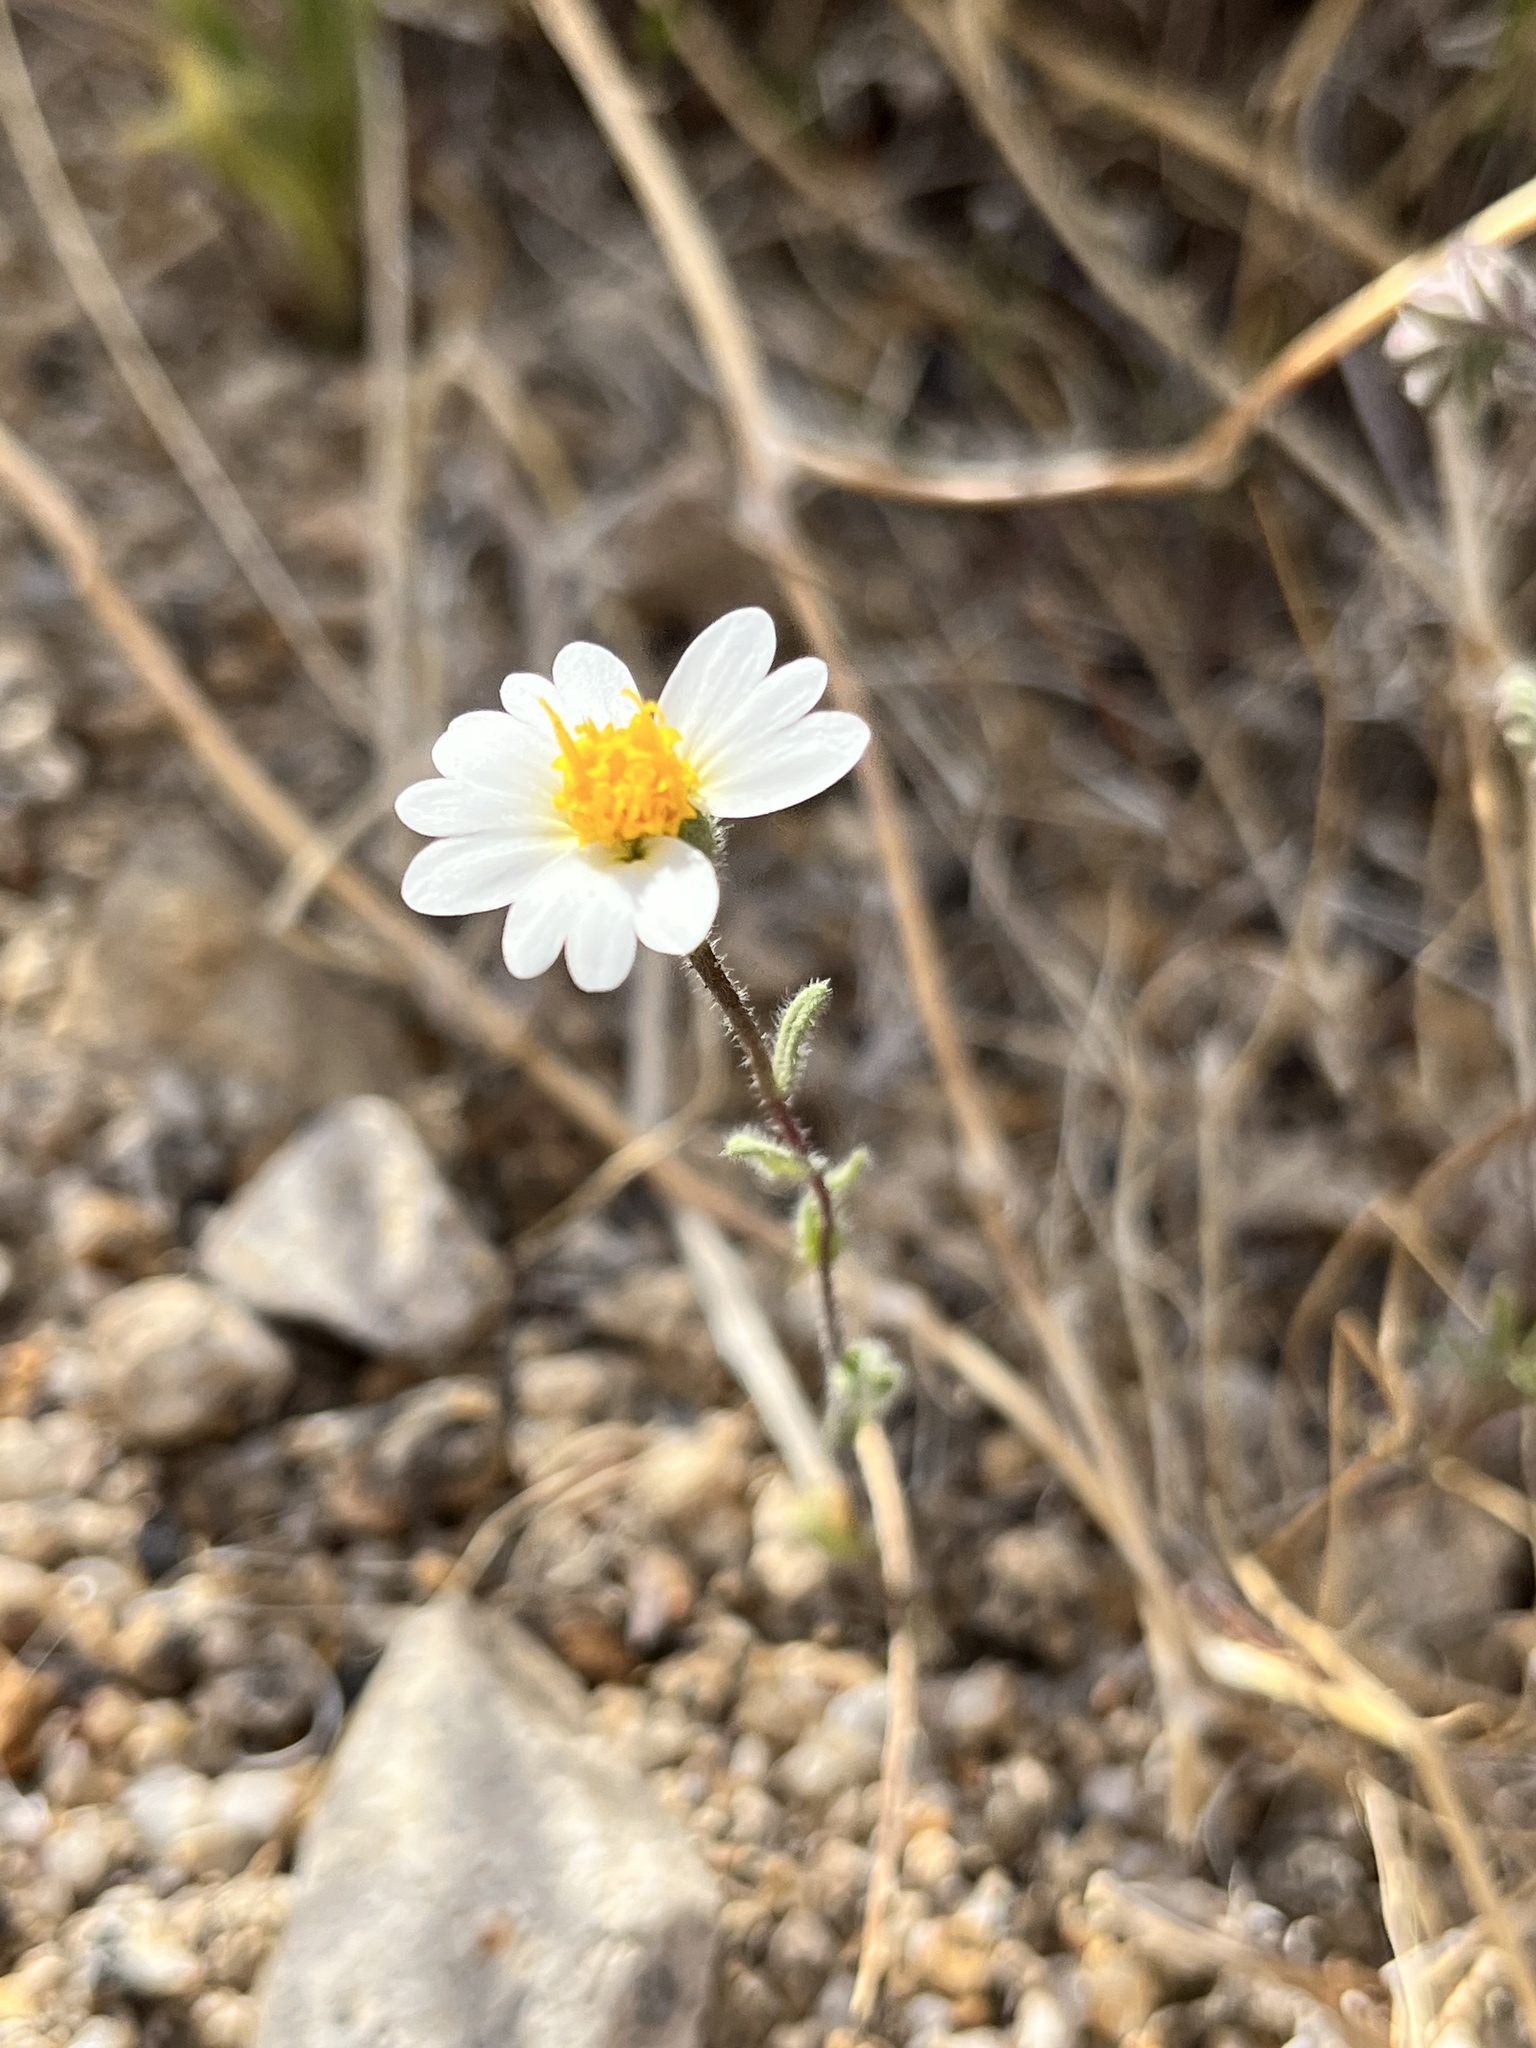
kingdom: Plantae
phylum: Tracheophyta
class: Magnoliopsida
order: Asterales
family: Asteraceae
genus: Layia
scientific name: Layia glandulosa
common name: White layia
